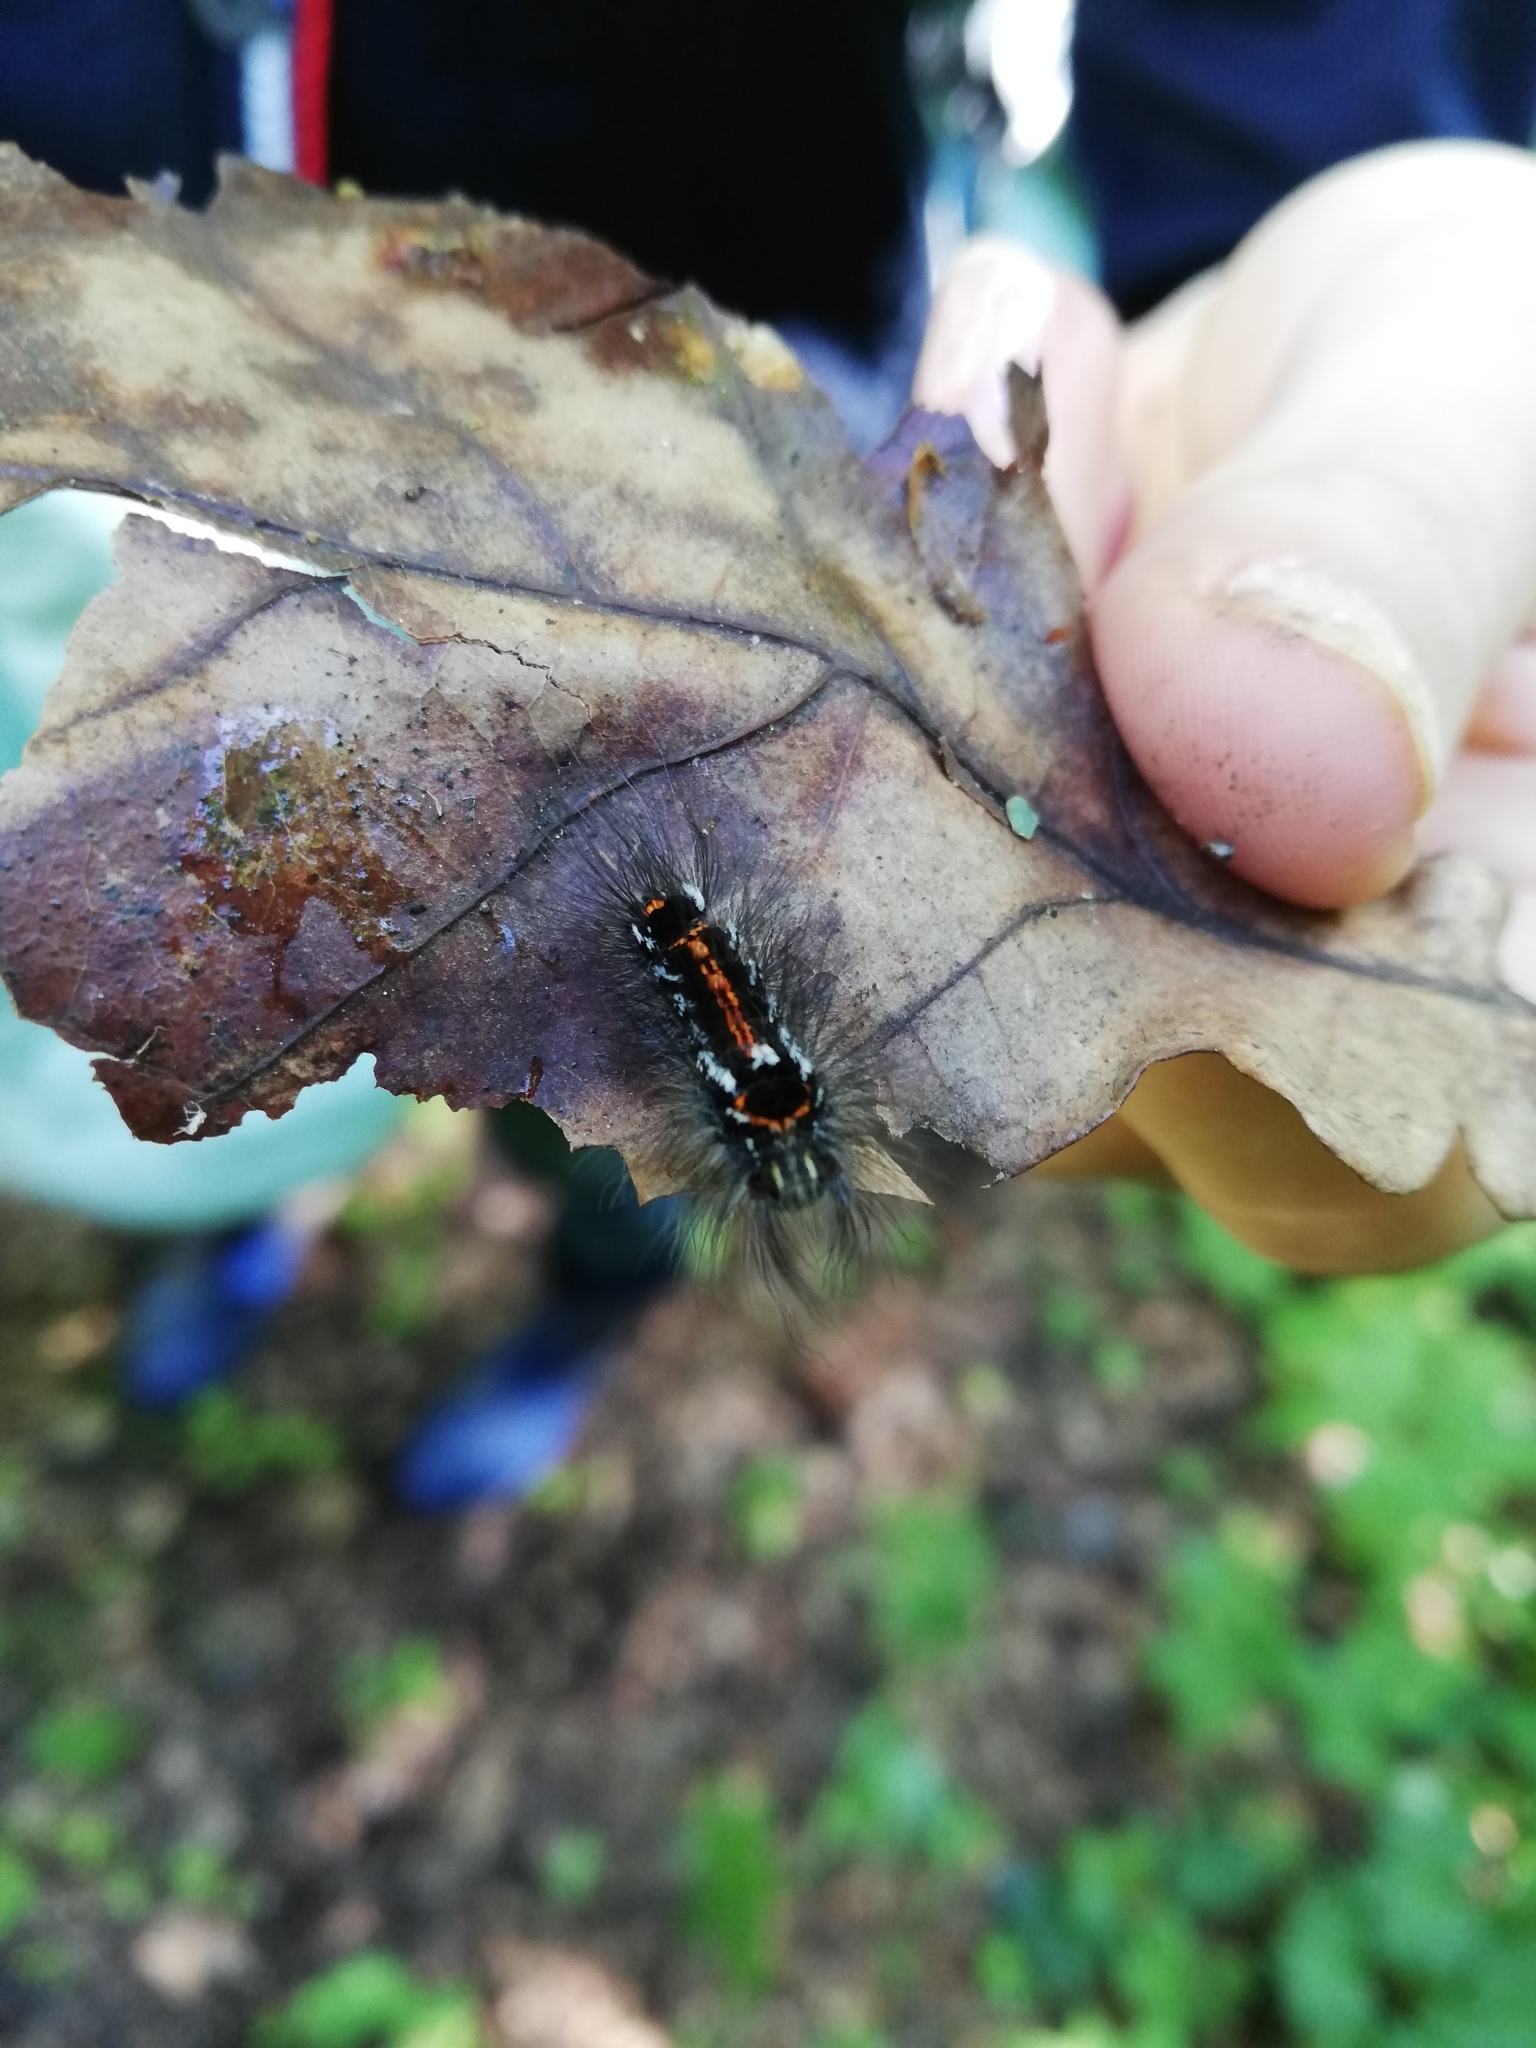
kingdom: Animalia
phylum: Arthropoda
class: Insecta
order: Lepidoptera
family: Erebidae
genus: Sphrageidus
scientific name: Sphrageidus similis
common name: Yellow-tail
